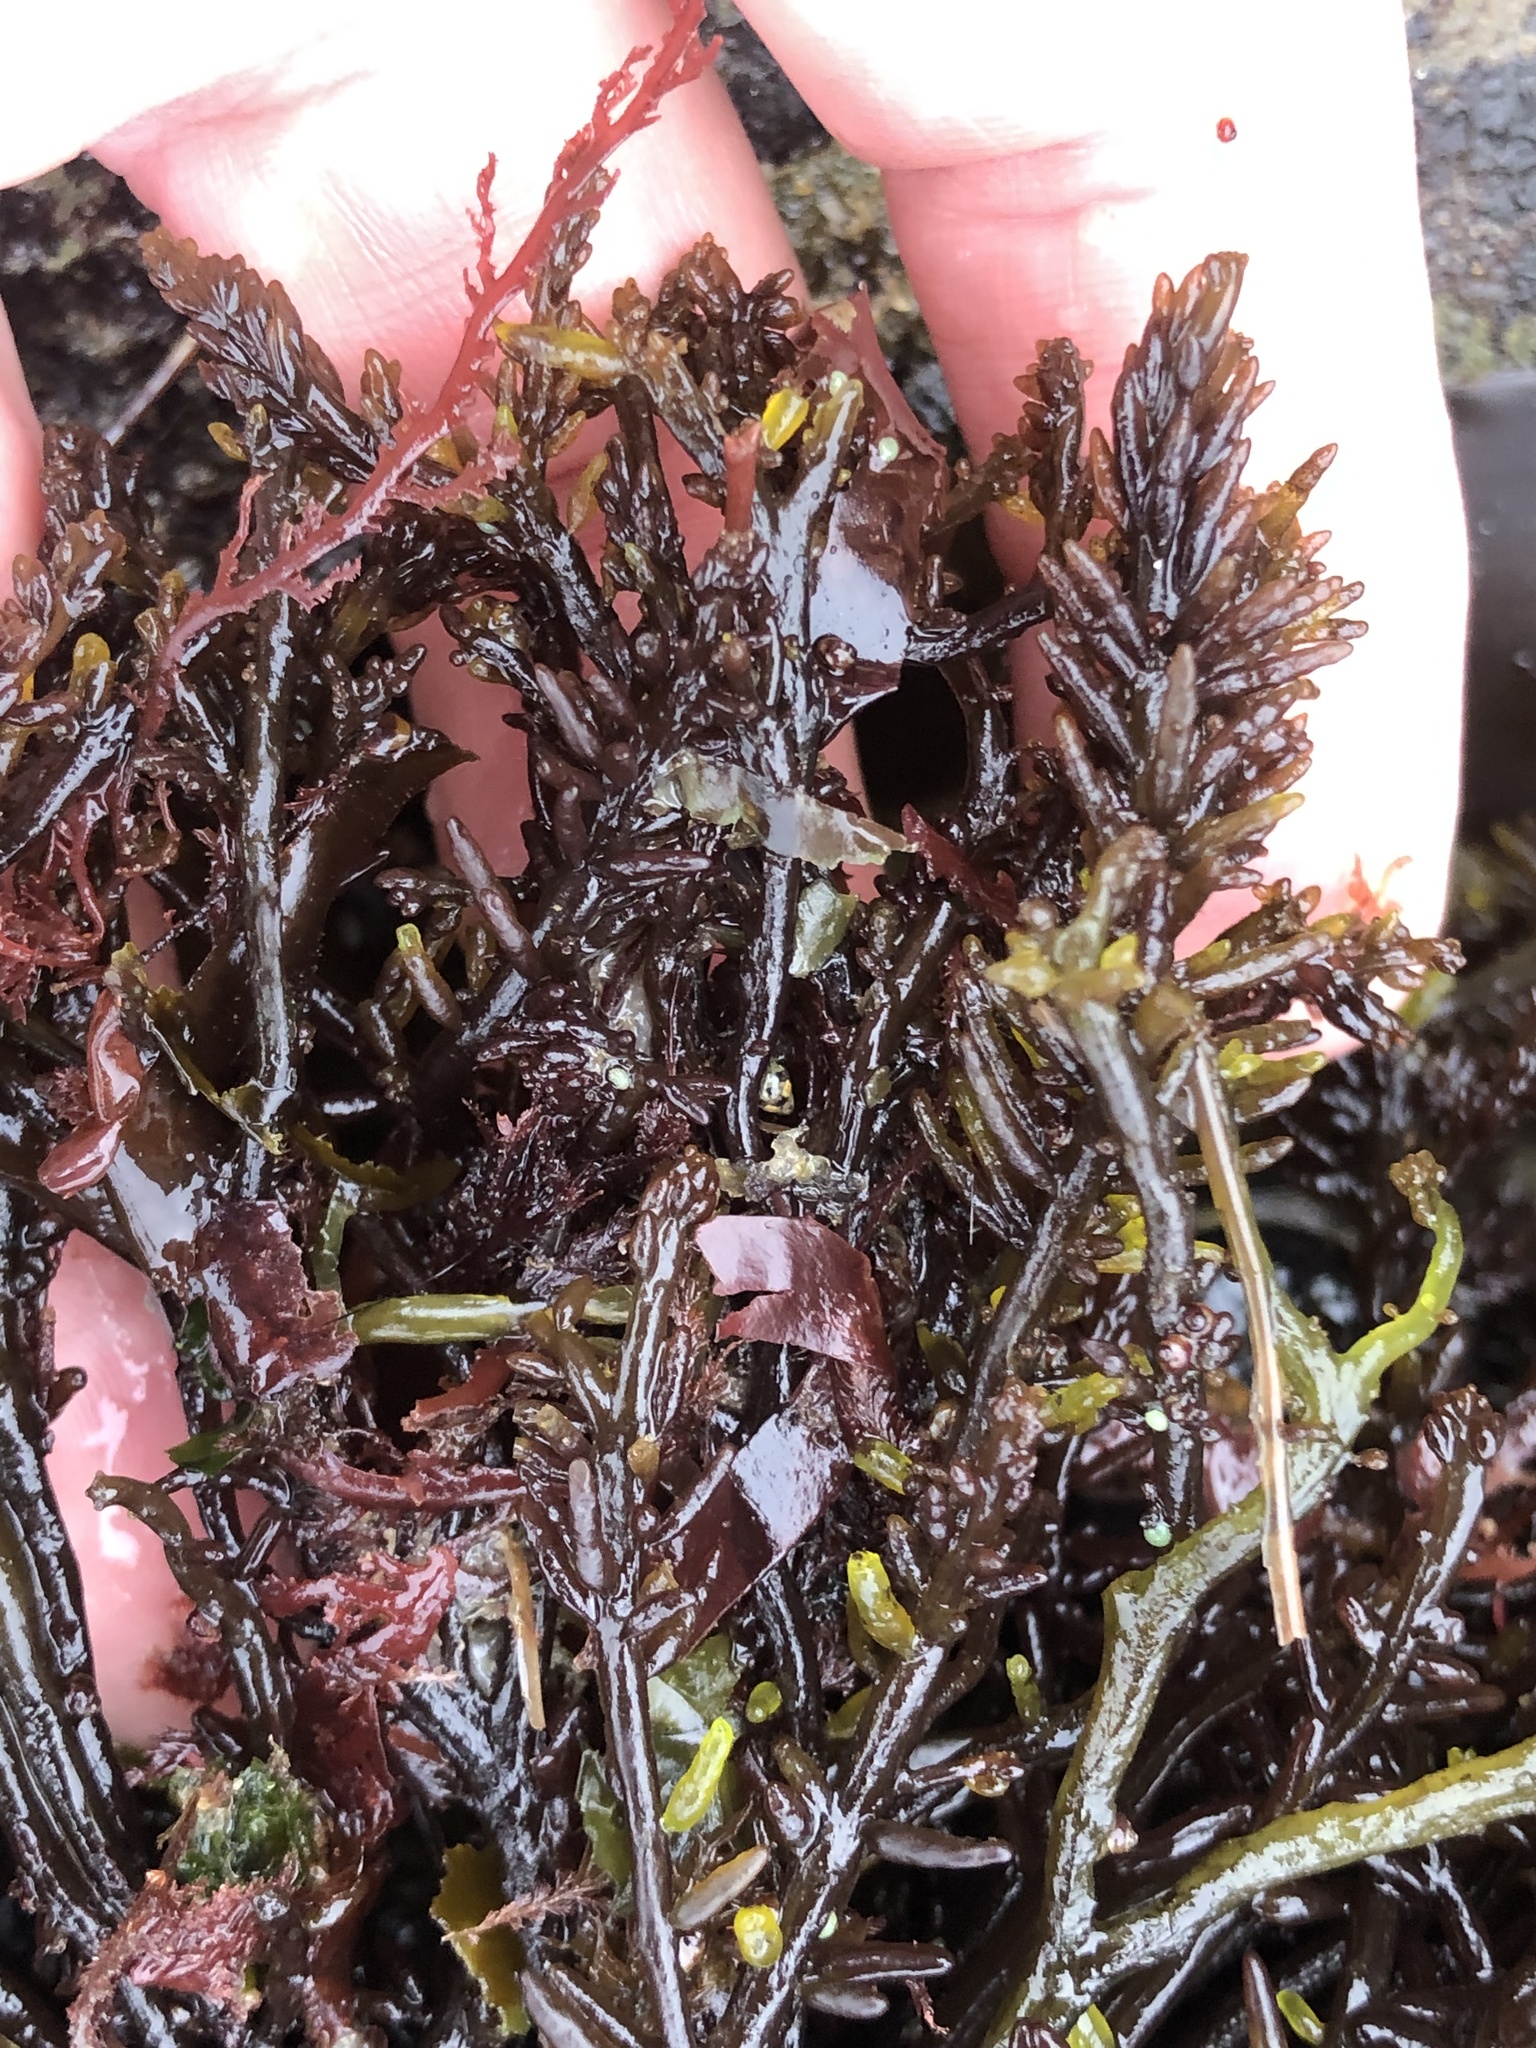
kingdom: Plantae
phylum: Rhodophyta
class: Florideophyceae
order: Rhodymeniales
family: Champiaceae
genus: Neogastroclonium
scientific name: Neogastroclonium subarticulatum
